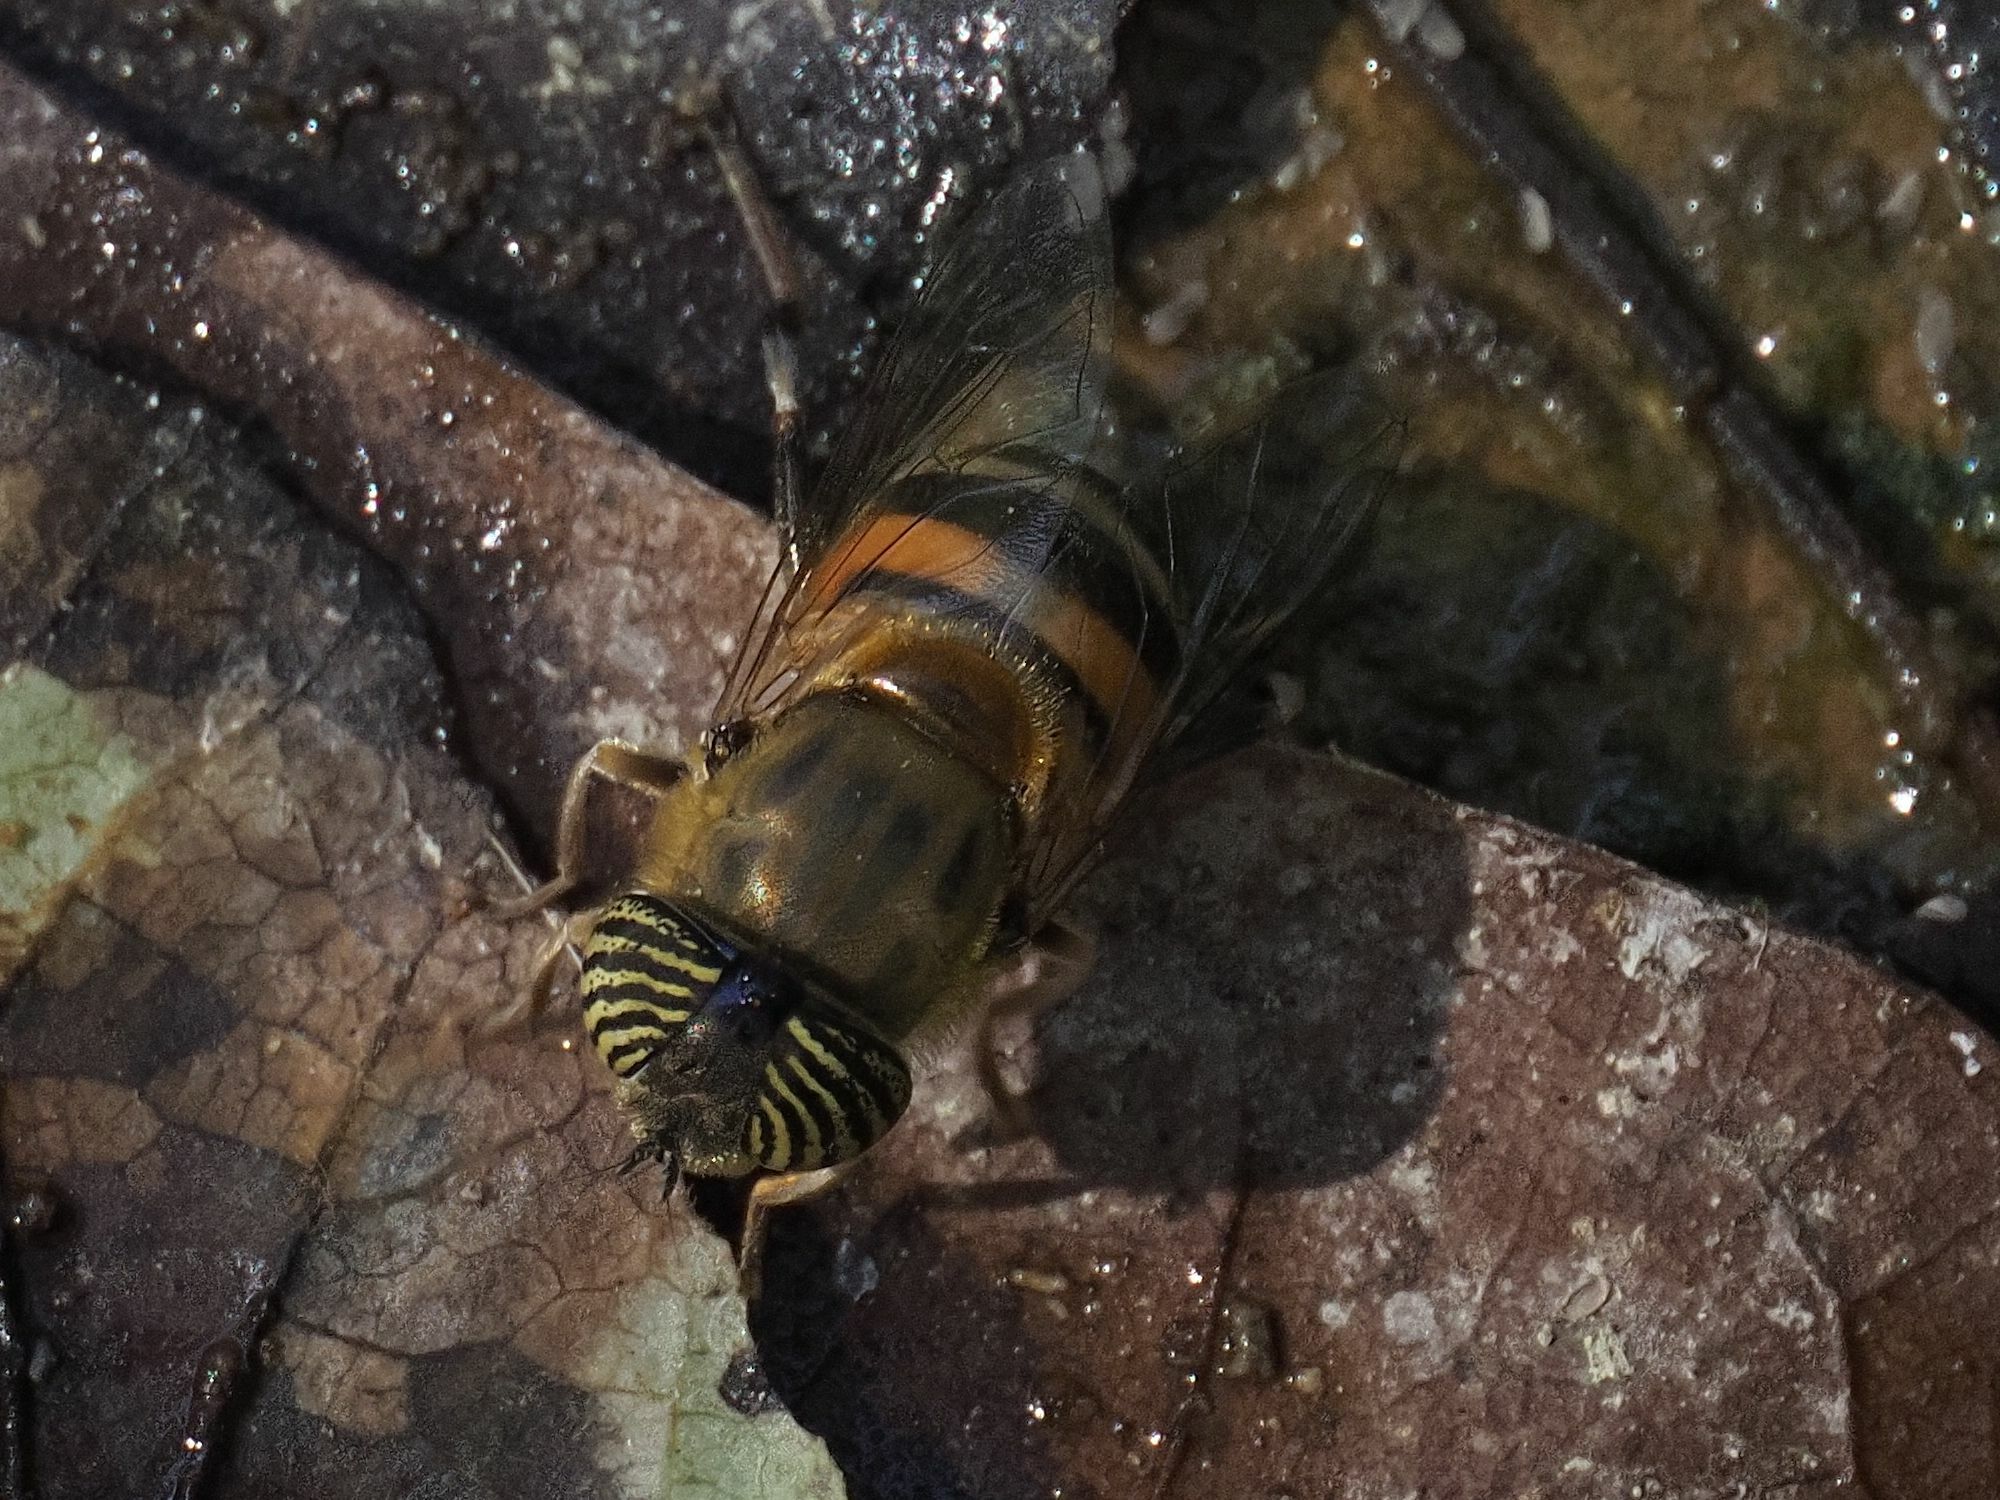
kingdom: Animalia
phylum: Arthropoda
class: Insecta
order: Diptera
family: Syrphidae
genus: Eristalinus
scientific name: Eristalinus taeniops
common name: Syrphid fly
